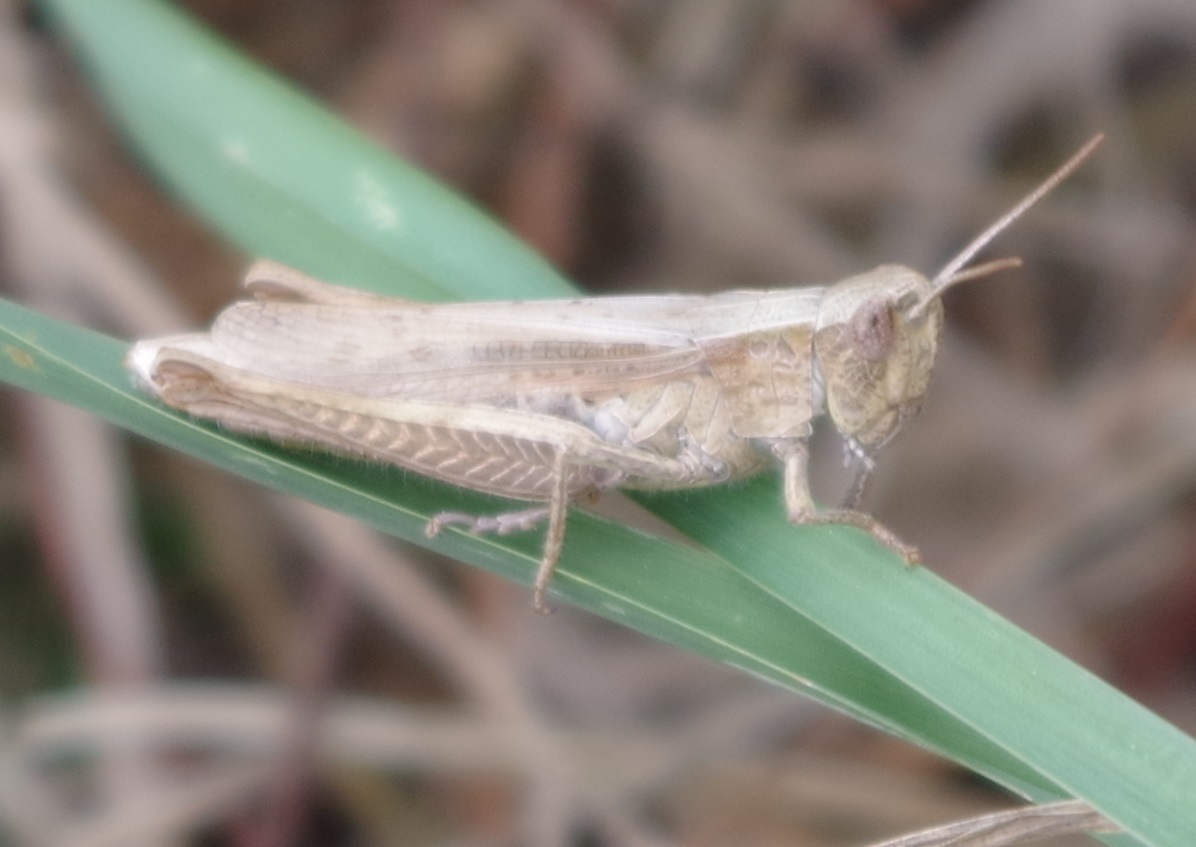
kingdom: Animalia
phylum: Arthropoda
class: Insecta
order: Orthoptera
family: Acrididae
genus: Chorthippus
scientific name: Chorthippus dorsatus
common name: Steppe grasshopper
